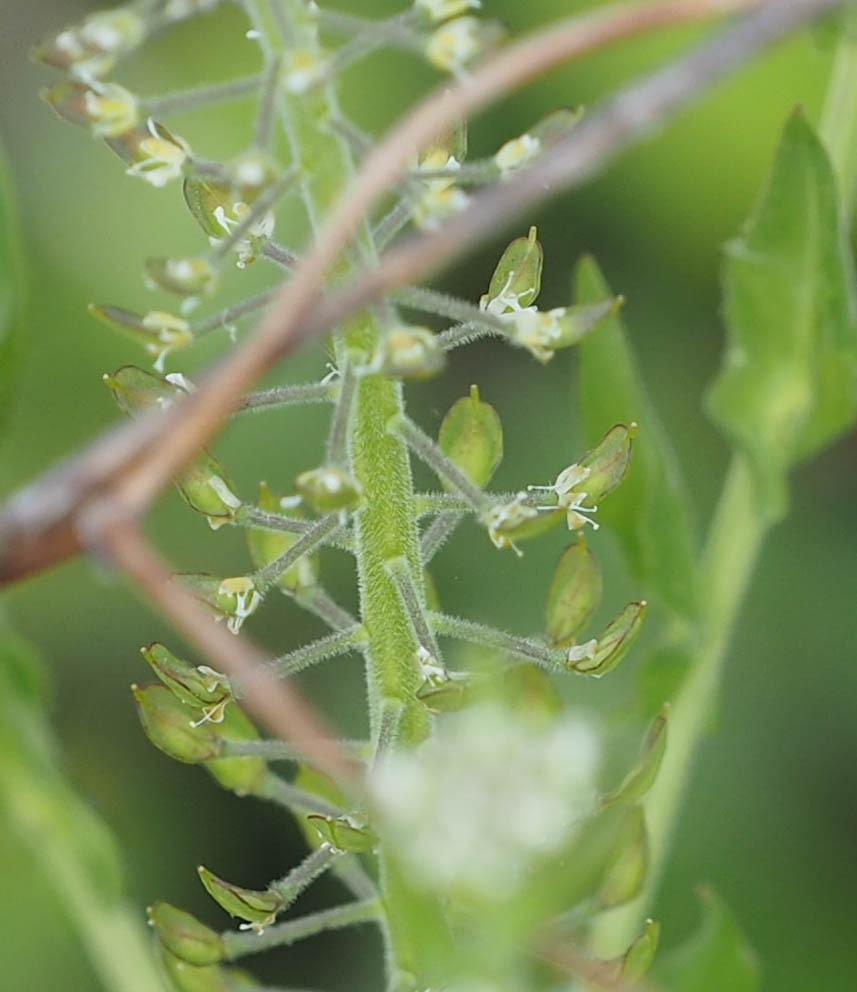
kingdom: Plantae
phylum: Tracheophyta
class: Magnoliopsida
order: Brassicales
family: Brassicaceae
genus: Lepidium
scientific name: Lepidium campestre
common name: Field pepperwort
